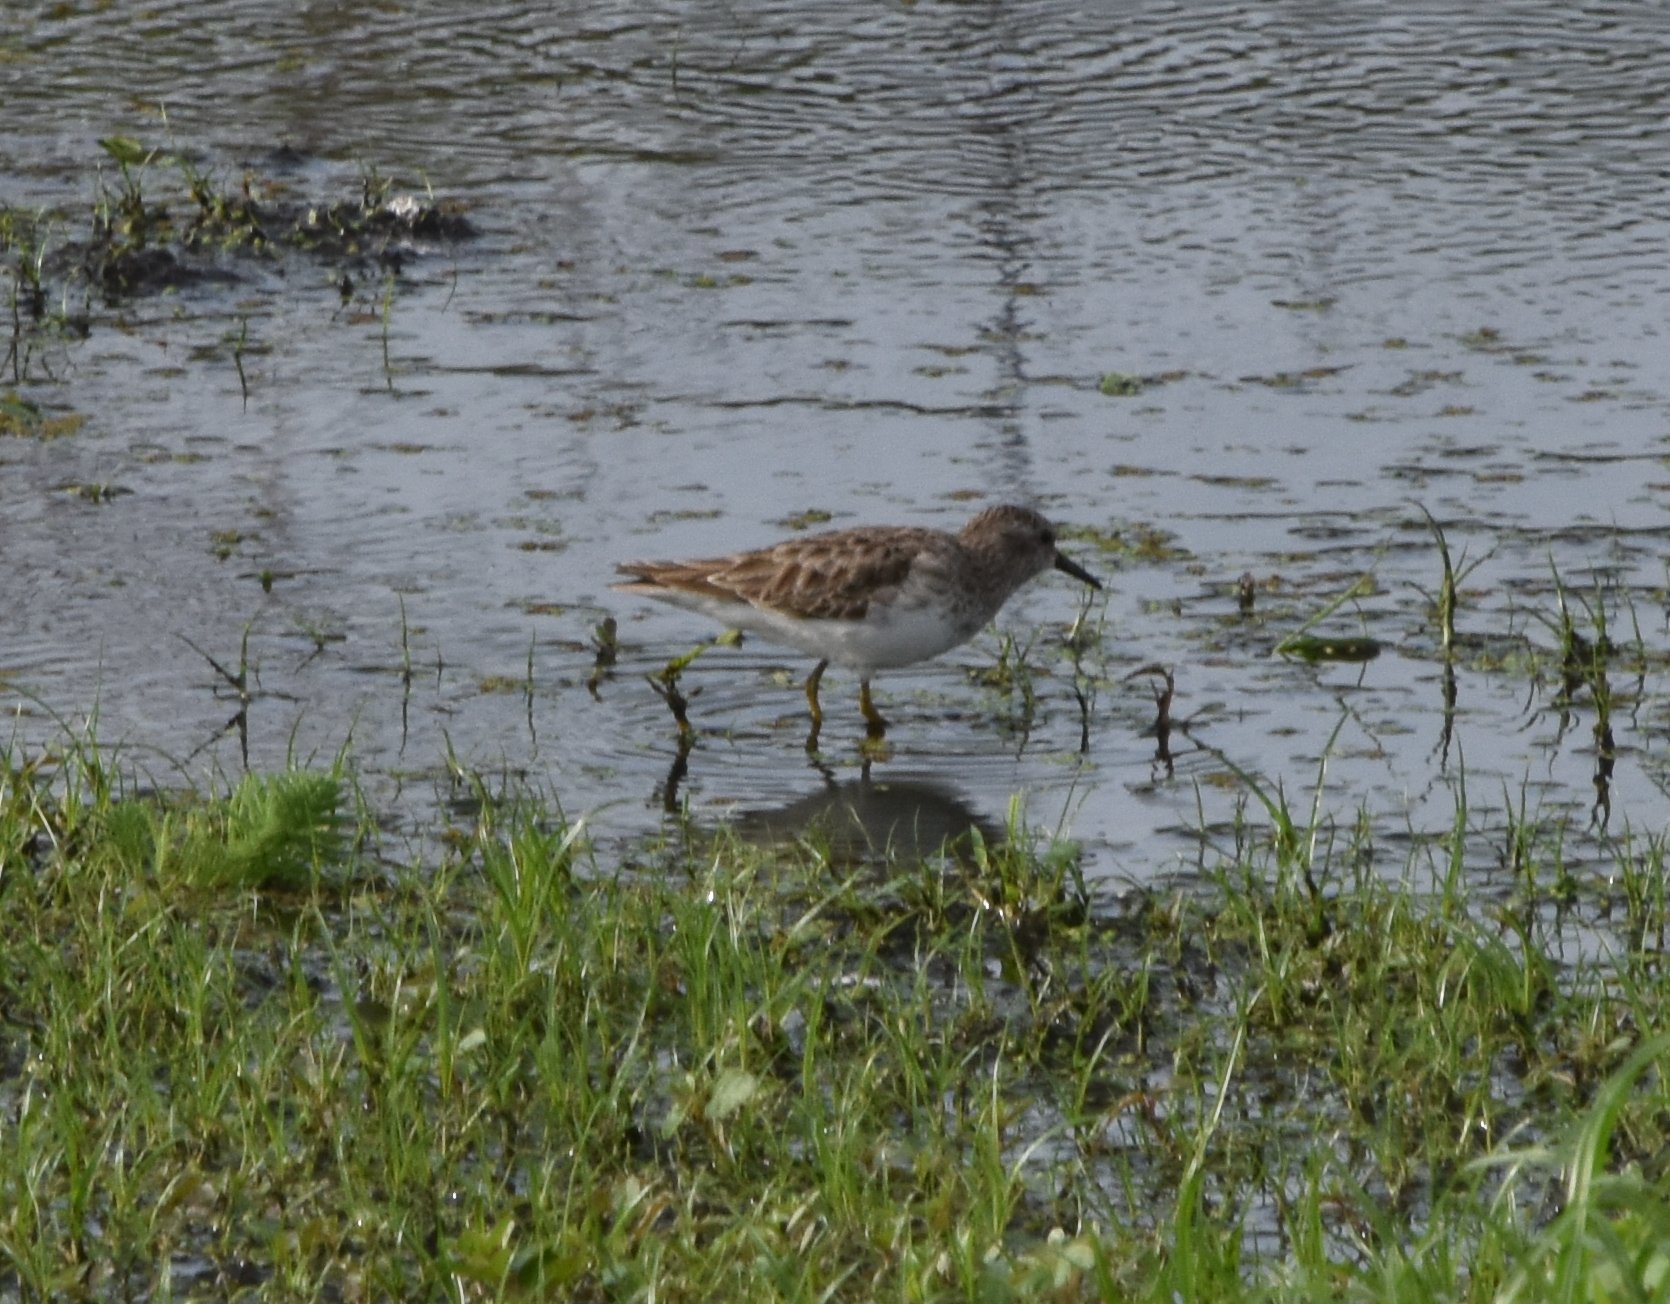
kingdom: Animalia
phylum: Chordata
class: Aves
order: Charadriiformes
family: Scolopacidae
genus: Calidris
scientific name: Calidris minutilla
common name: Least sandpiper
